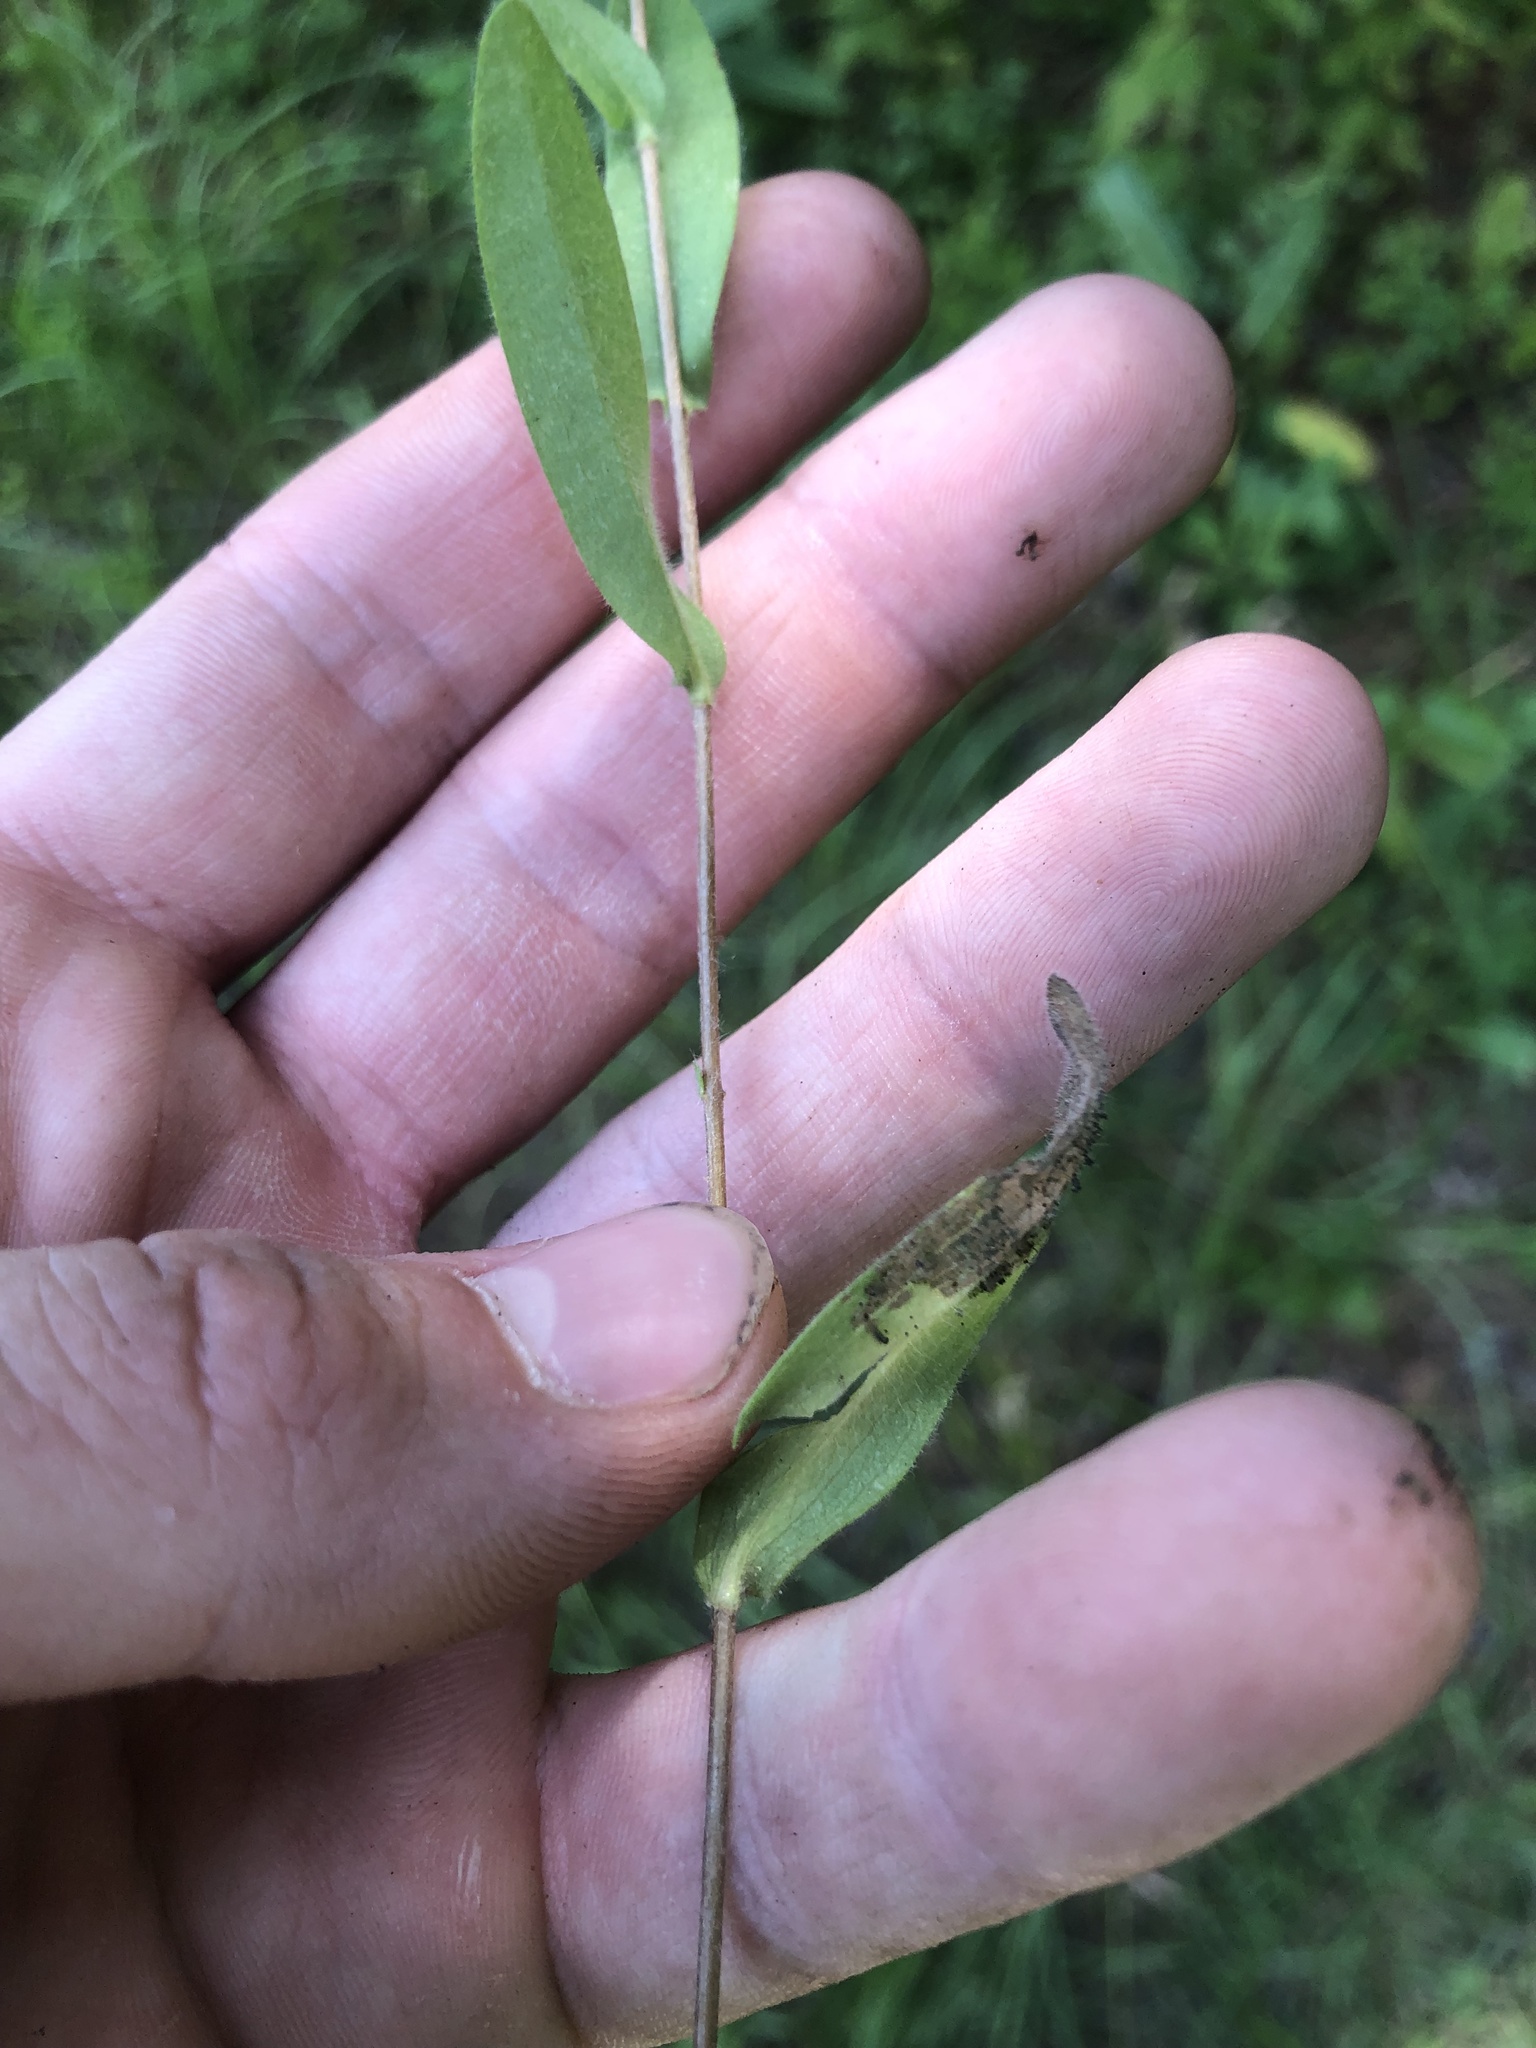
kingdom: Plantae
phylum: Tracheophyta
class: Magnoliopsida
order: Asterales
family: Asteraceae
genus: Symphyotrichum
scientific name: Symphyotrichum pratense
